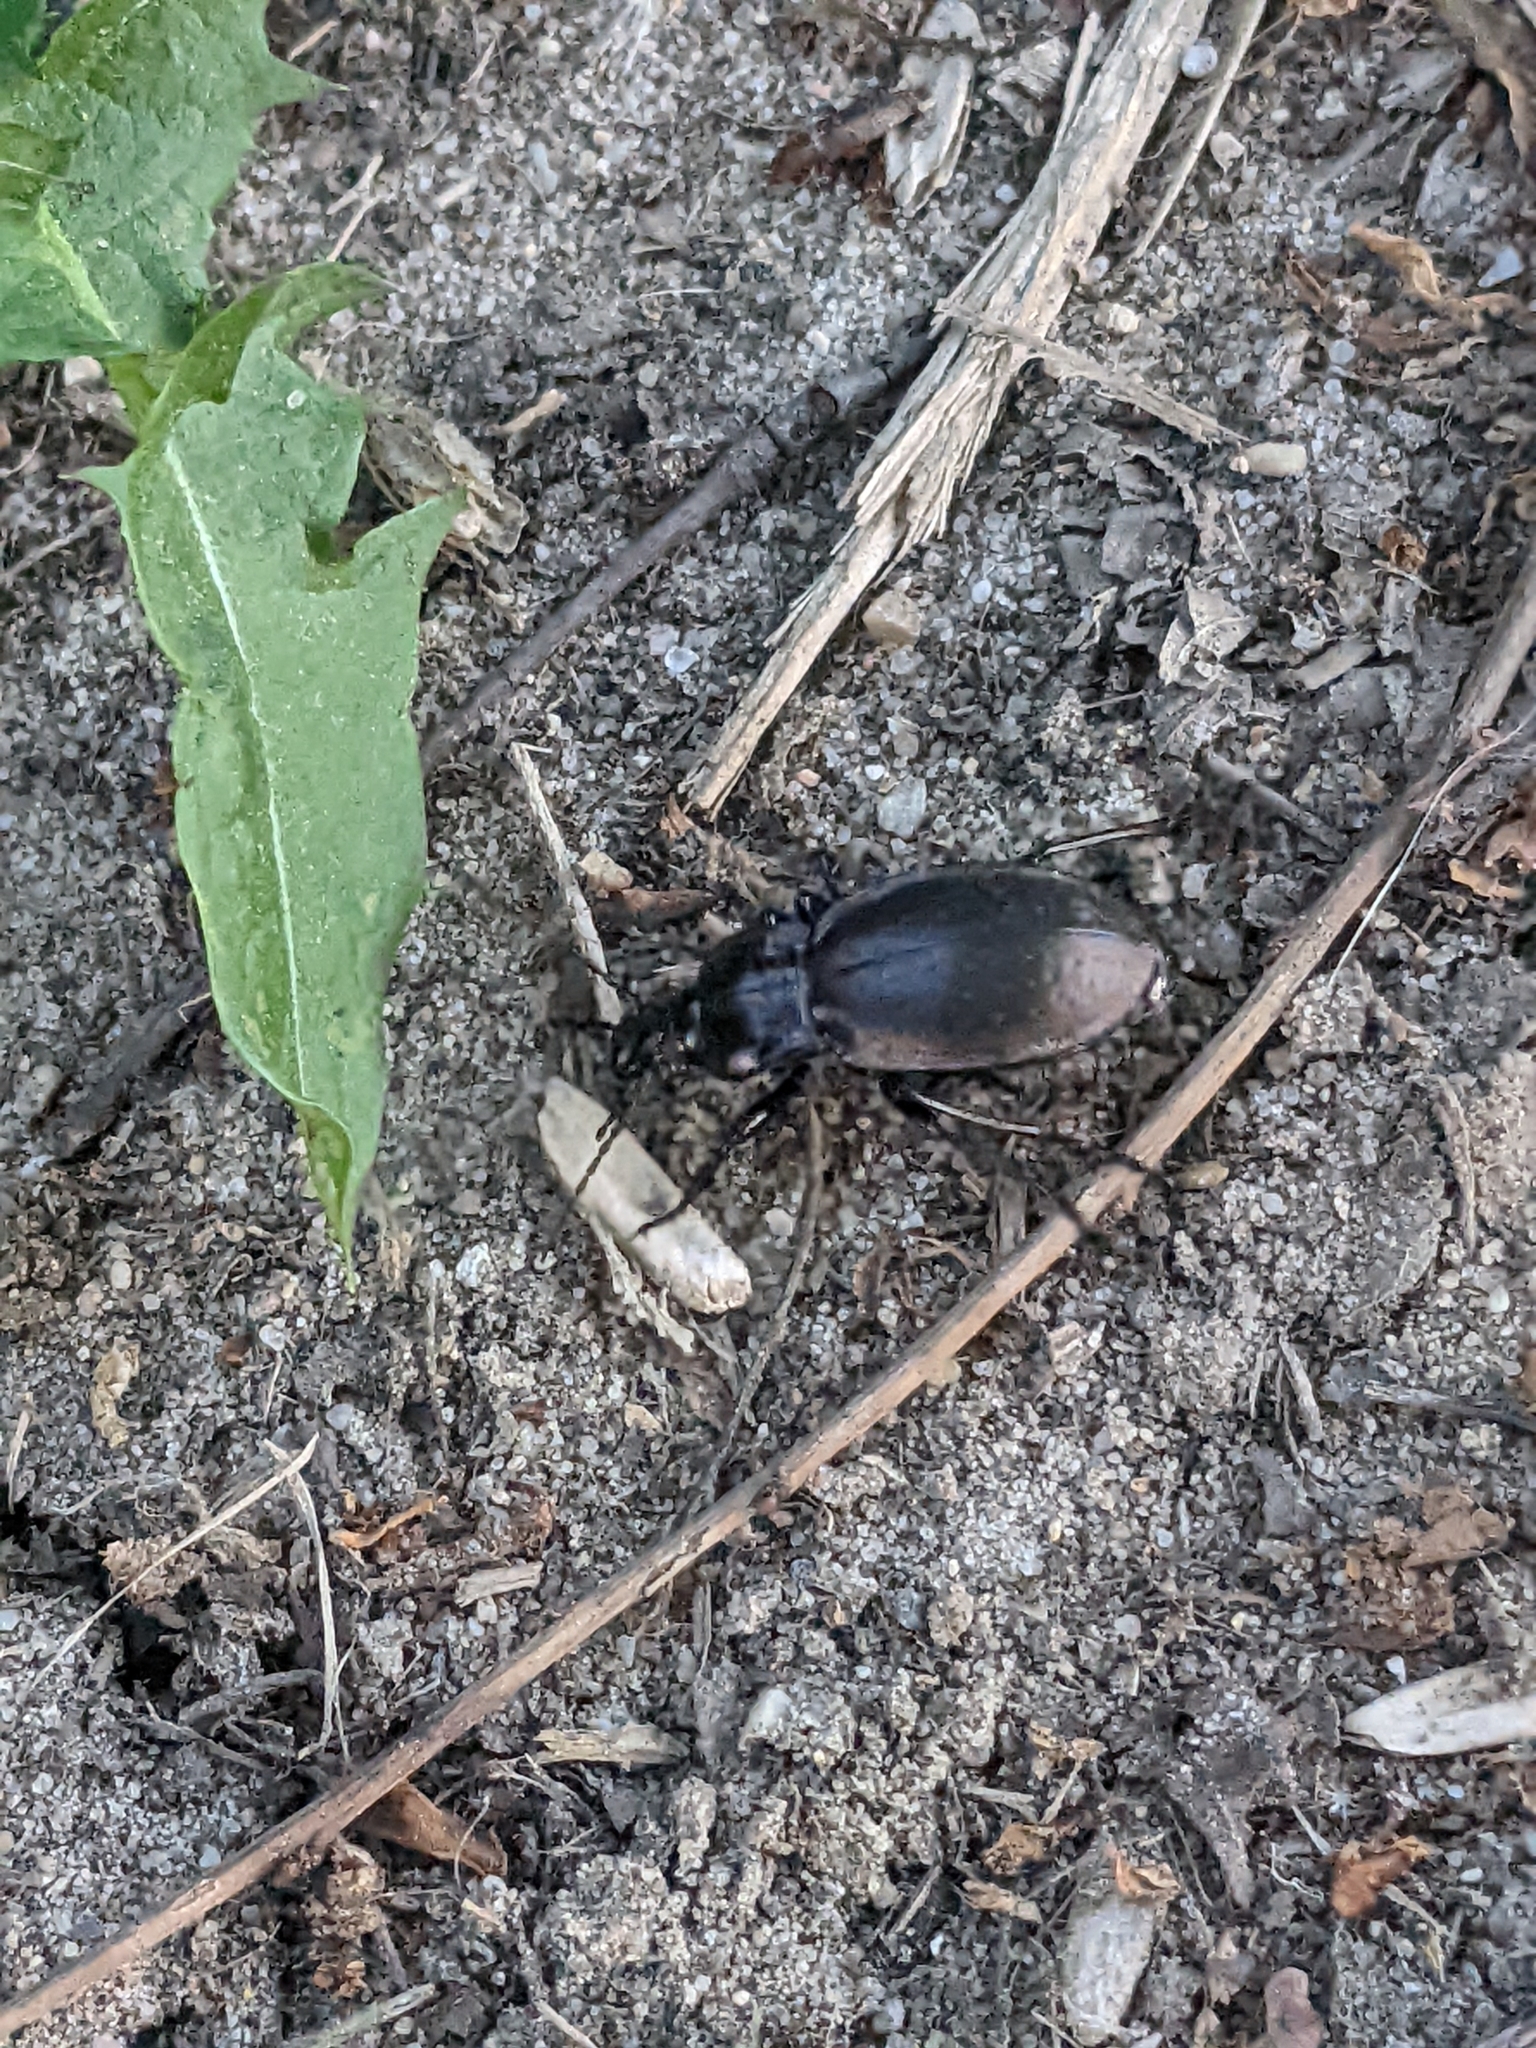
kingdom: Animalia
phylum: Arthropoda
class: Insecta
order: Coleoptera
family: Carabidae
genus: Carabus
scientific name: Carabus nemoralis
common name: European ground beetle
